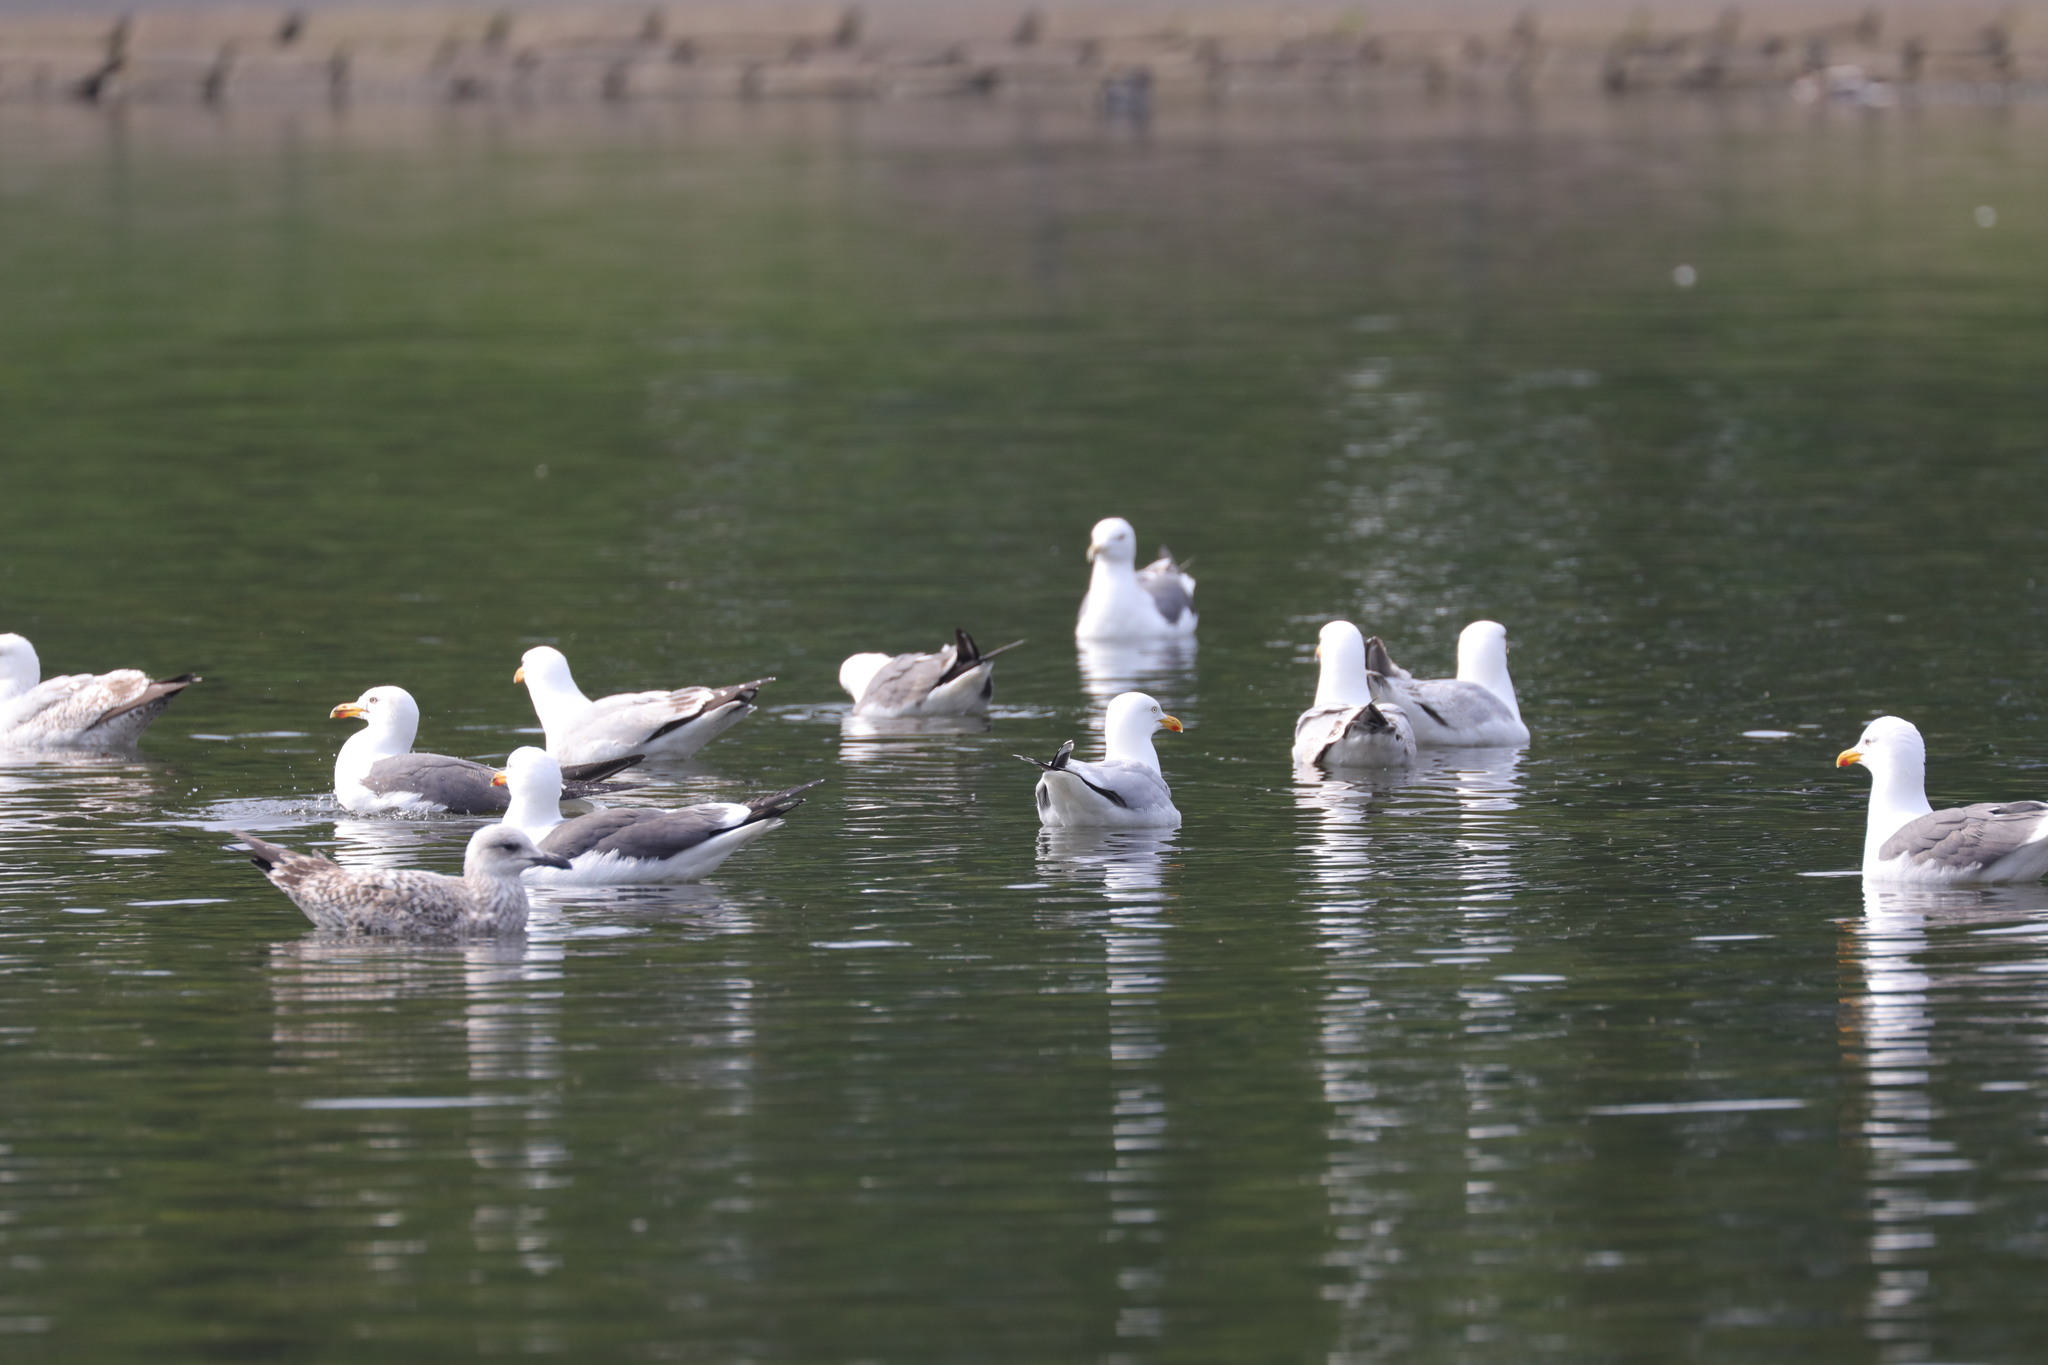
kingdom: Animalia
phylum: Chordata
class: Aves
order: Charadriiformes
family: Laridae
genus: Larus
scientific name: Larus argentatus
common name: Herring gull
